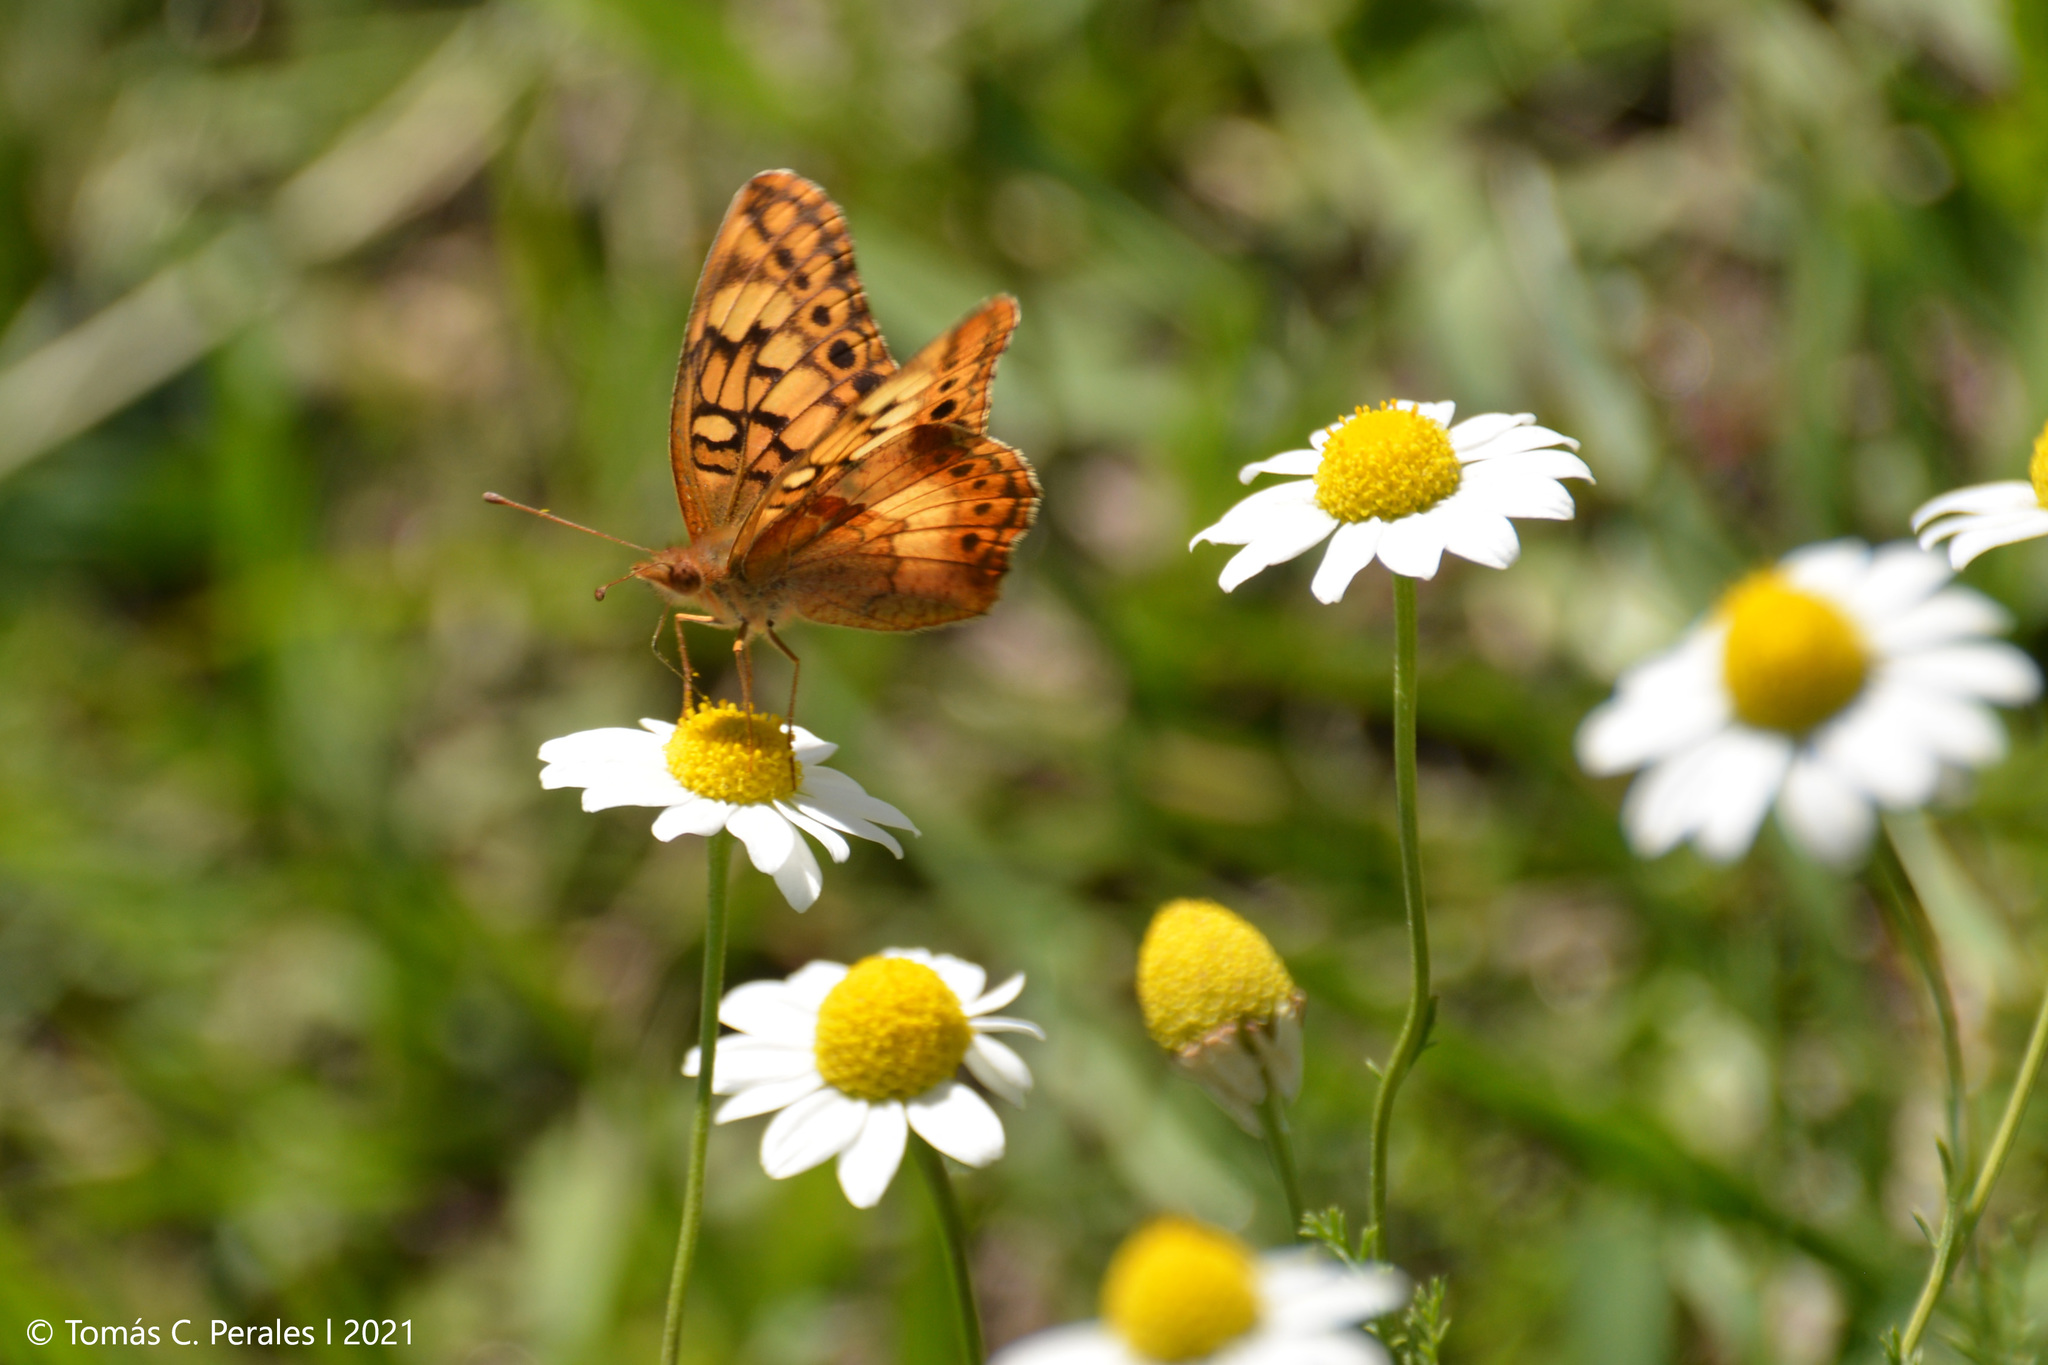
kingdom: Animalia
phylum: Arthropoda
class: Insecta
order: Lepidoptera
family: Nymphalidae
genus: Euptoieta
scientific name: Euptoieta hortensia
